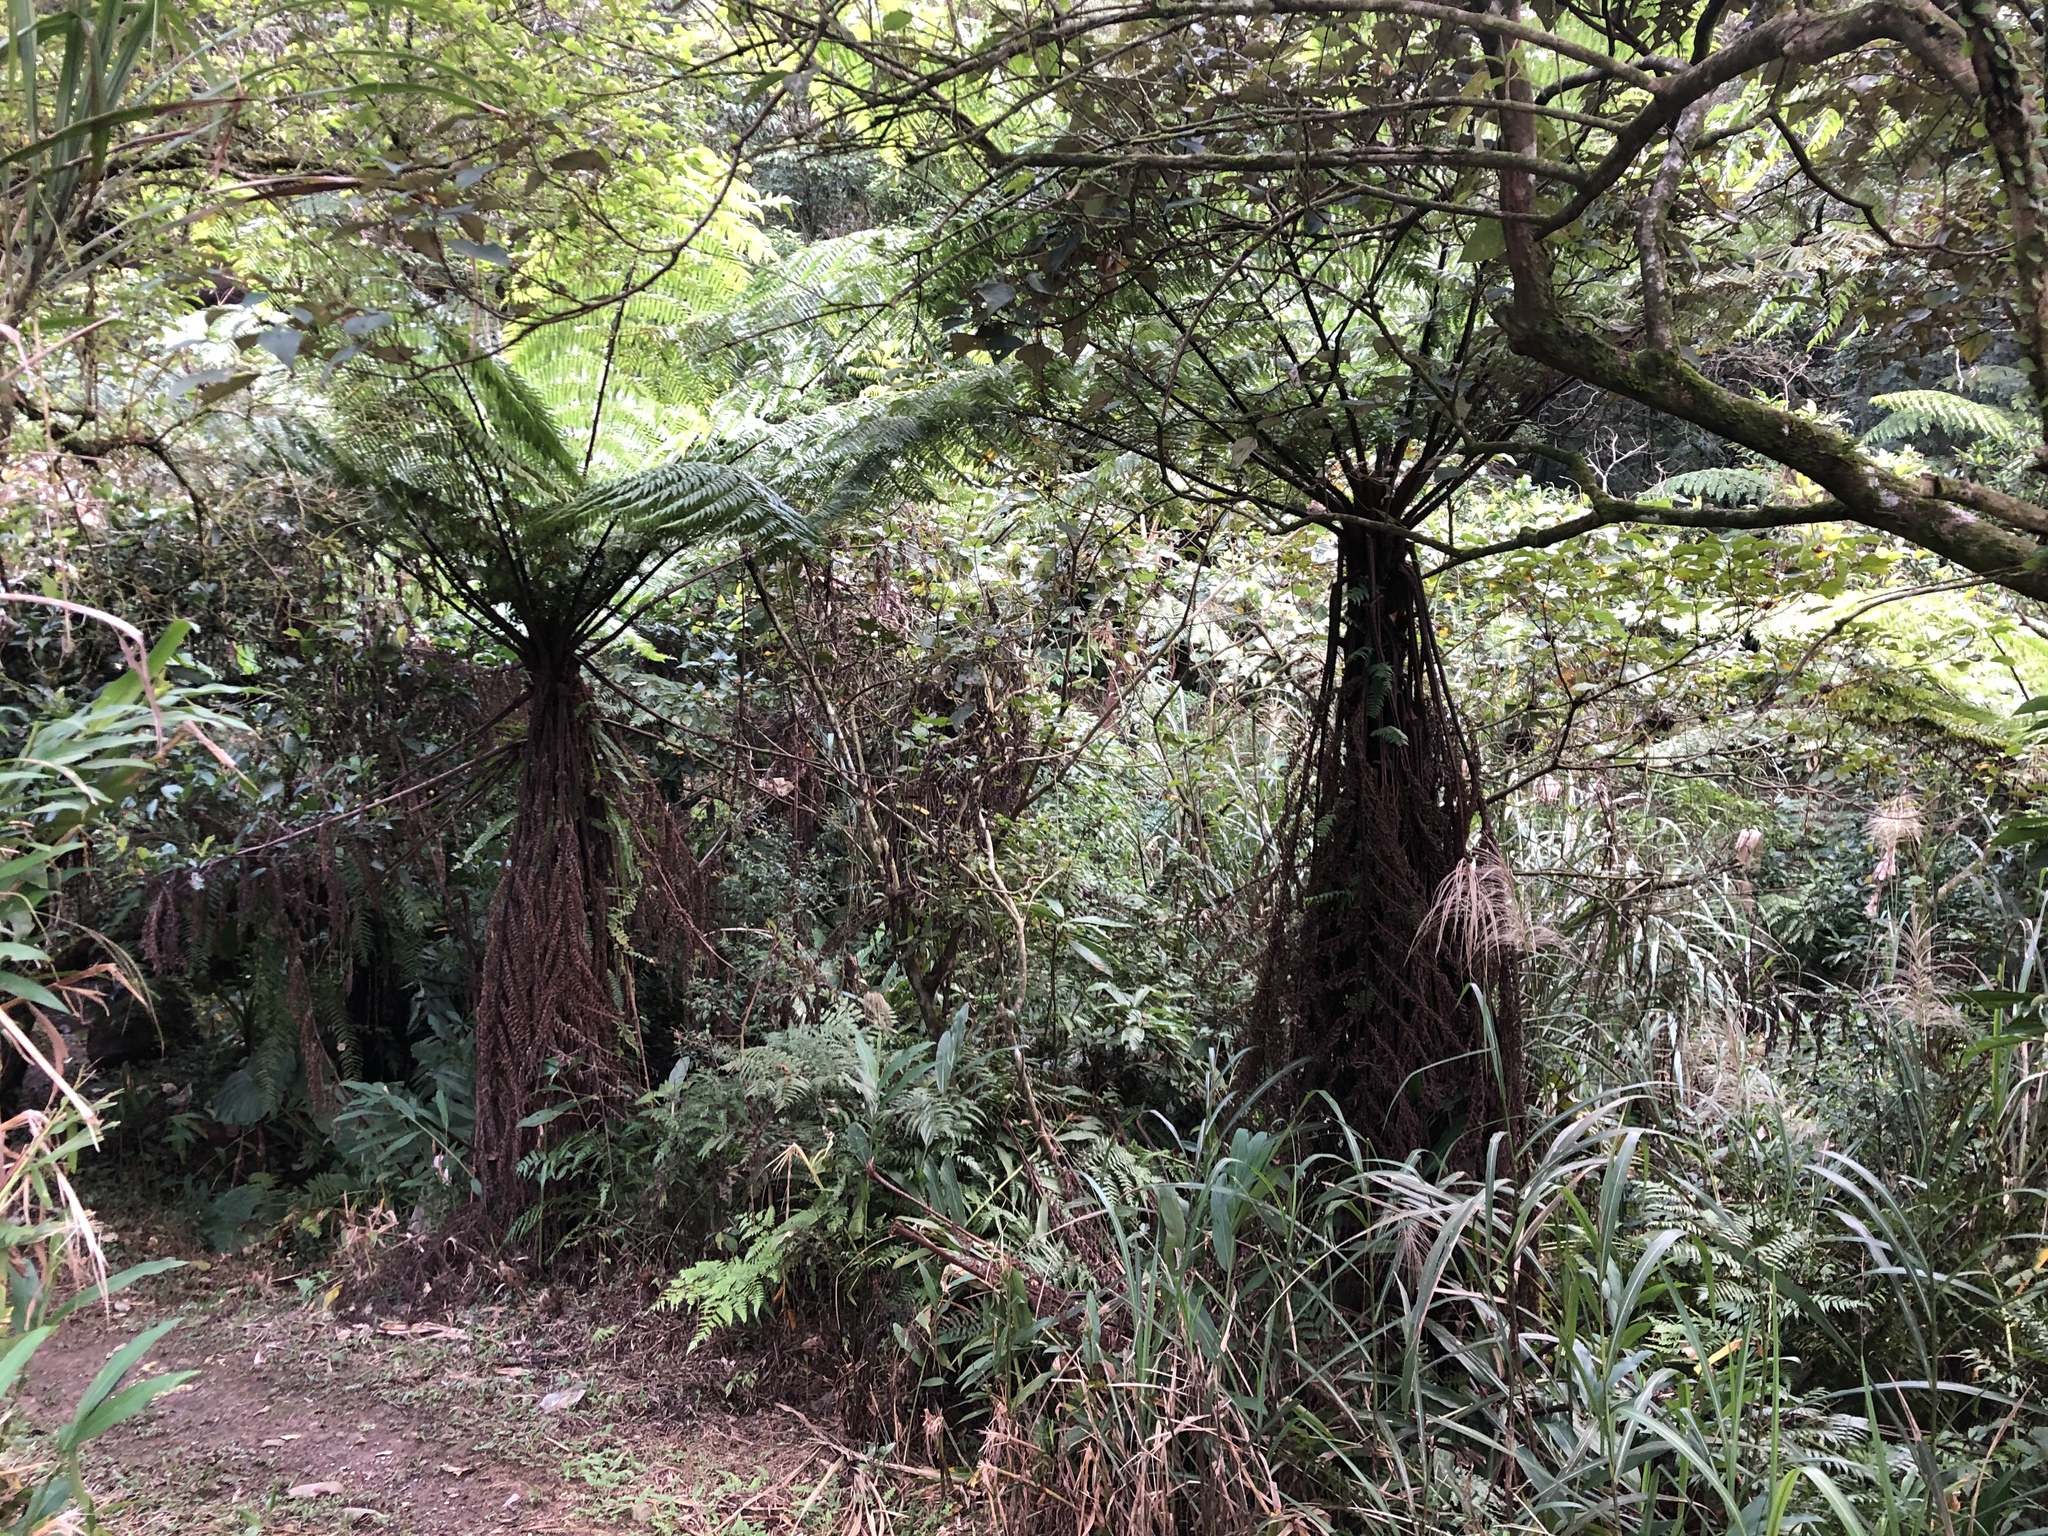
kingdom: Plantae
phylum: Tracheophyta
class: Polypodiopsida
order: Cyatheales
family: Cyatheaceae
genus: Alsophila
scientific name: Alsophila spinulosa
